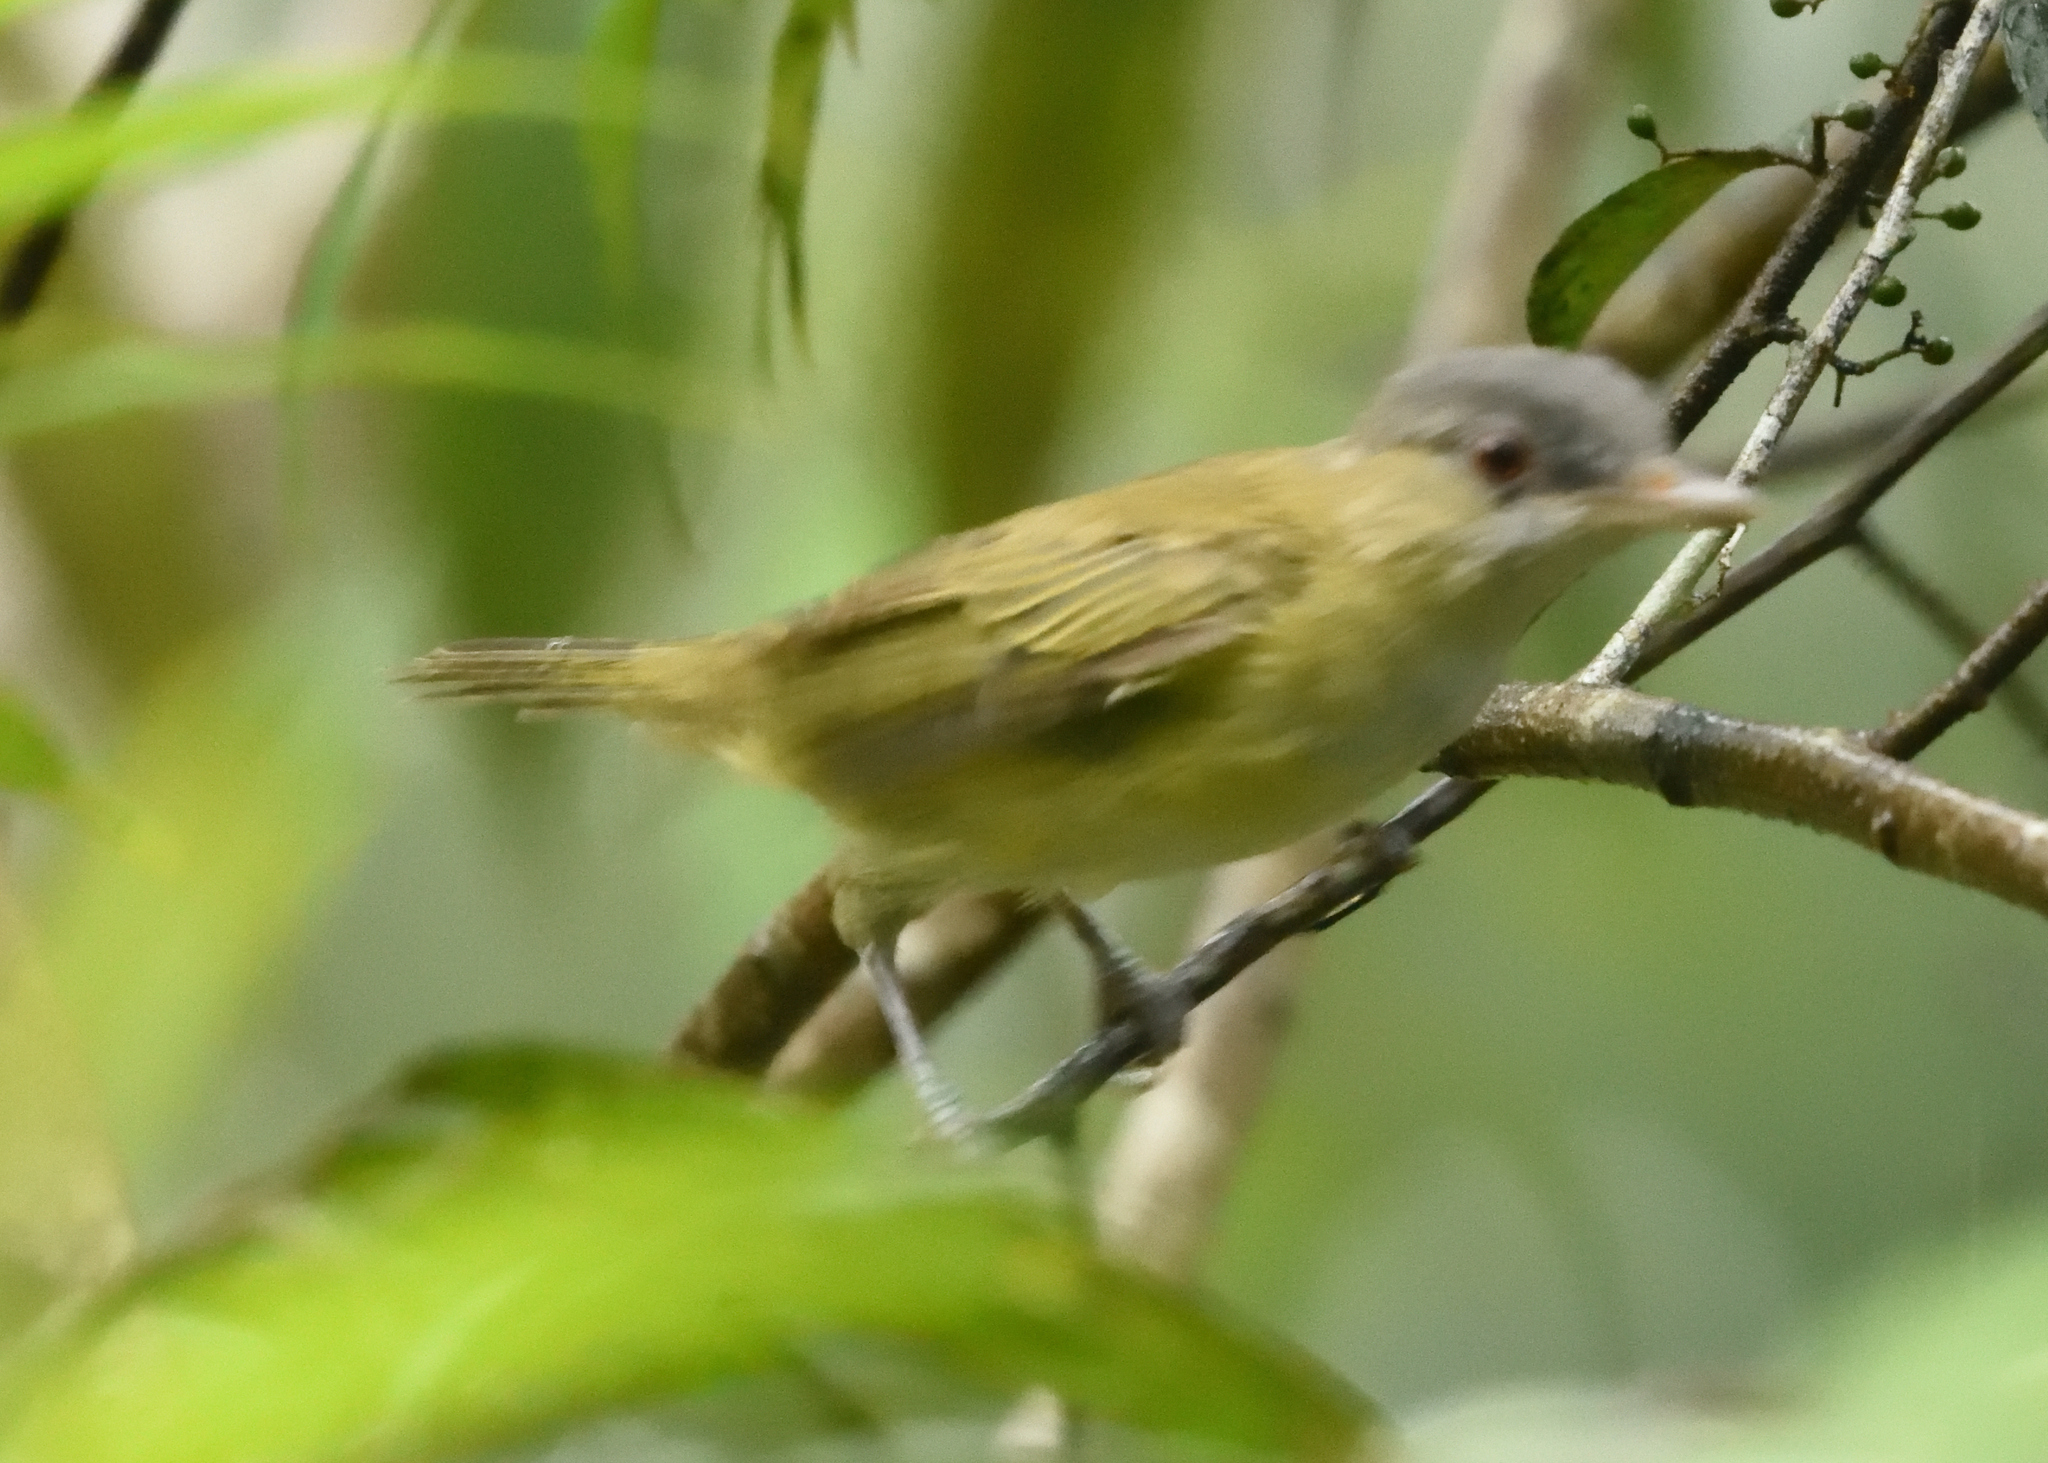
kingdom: Animalia
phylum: Chordata
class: Aves
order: Passeriformes
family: Vireonidae
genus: Vireo
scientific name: Vireo flavoviridis
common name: Yellow-green vireo
